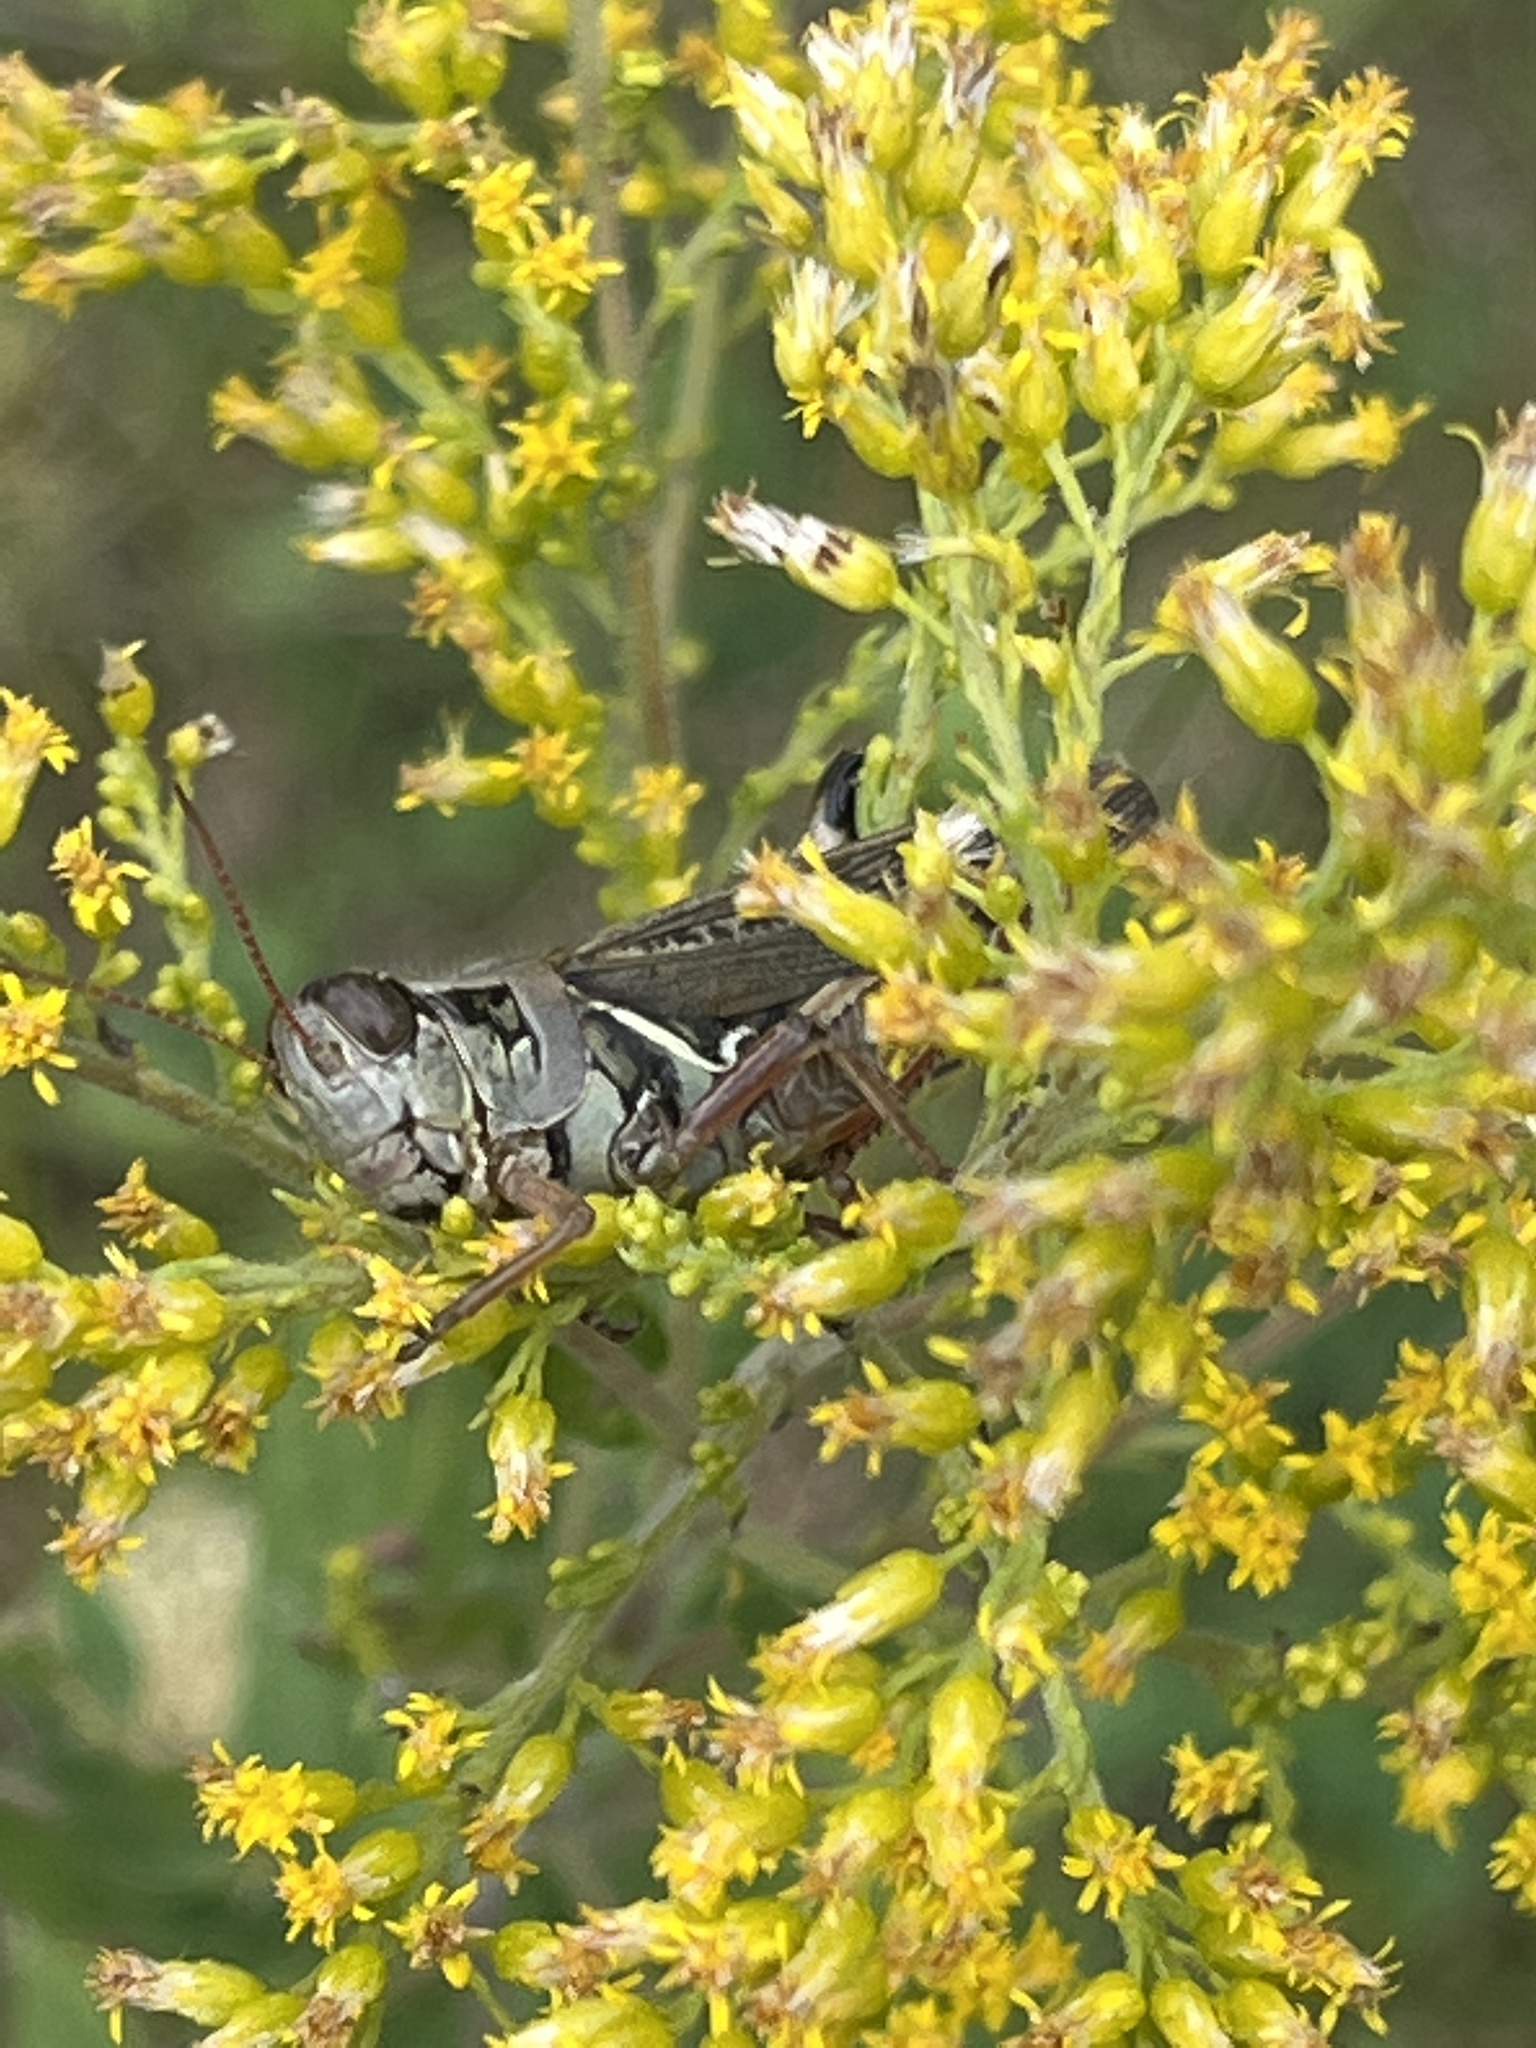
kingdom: Animalia
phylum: Arthropoda
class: Insecta
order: Orthoptera
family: Acrididae
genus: Melanoplus
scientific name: Melanoplus femurrubrum
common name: Red-legged grasshopper
